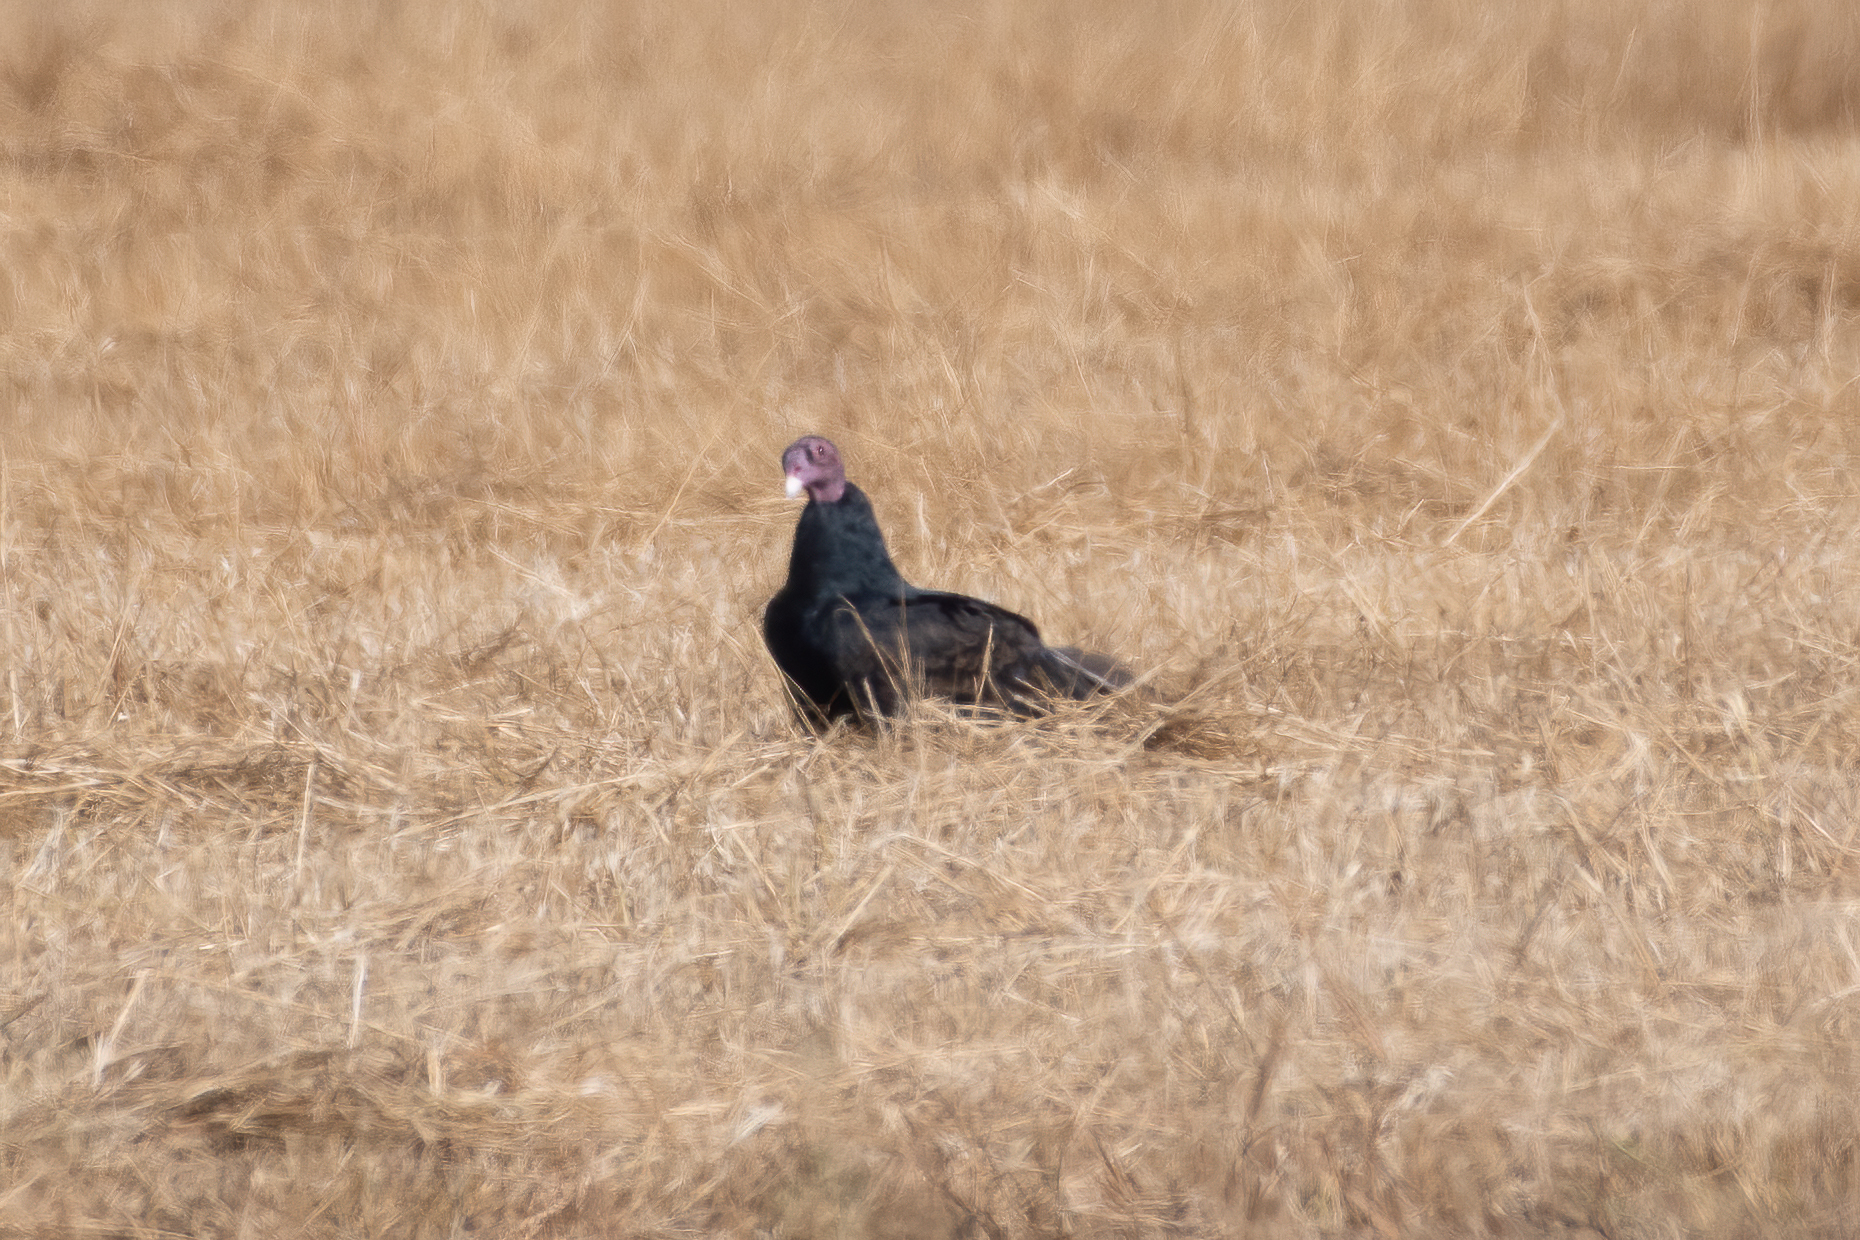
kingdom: Animalia
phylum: Chordata
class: Aves
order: Accipitriformes
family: Cathartidae
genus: Cathartes
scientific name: Cathartes aura
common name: Turkey vulture
